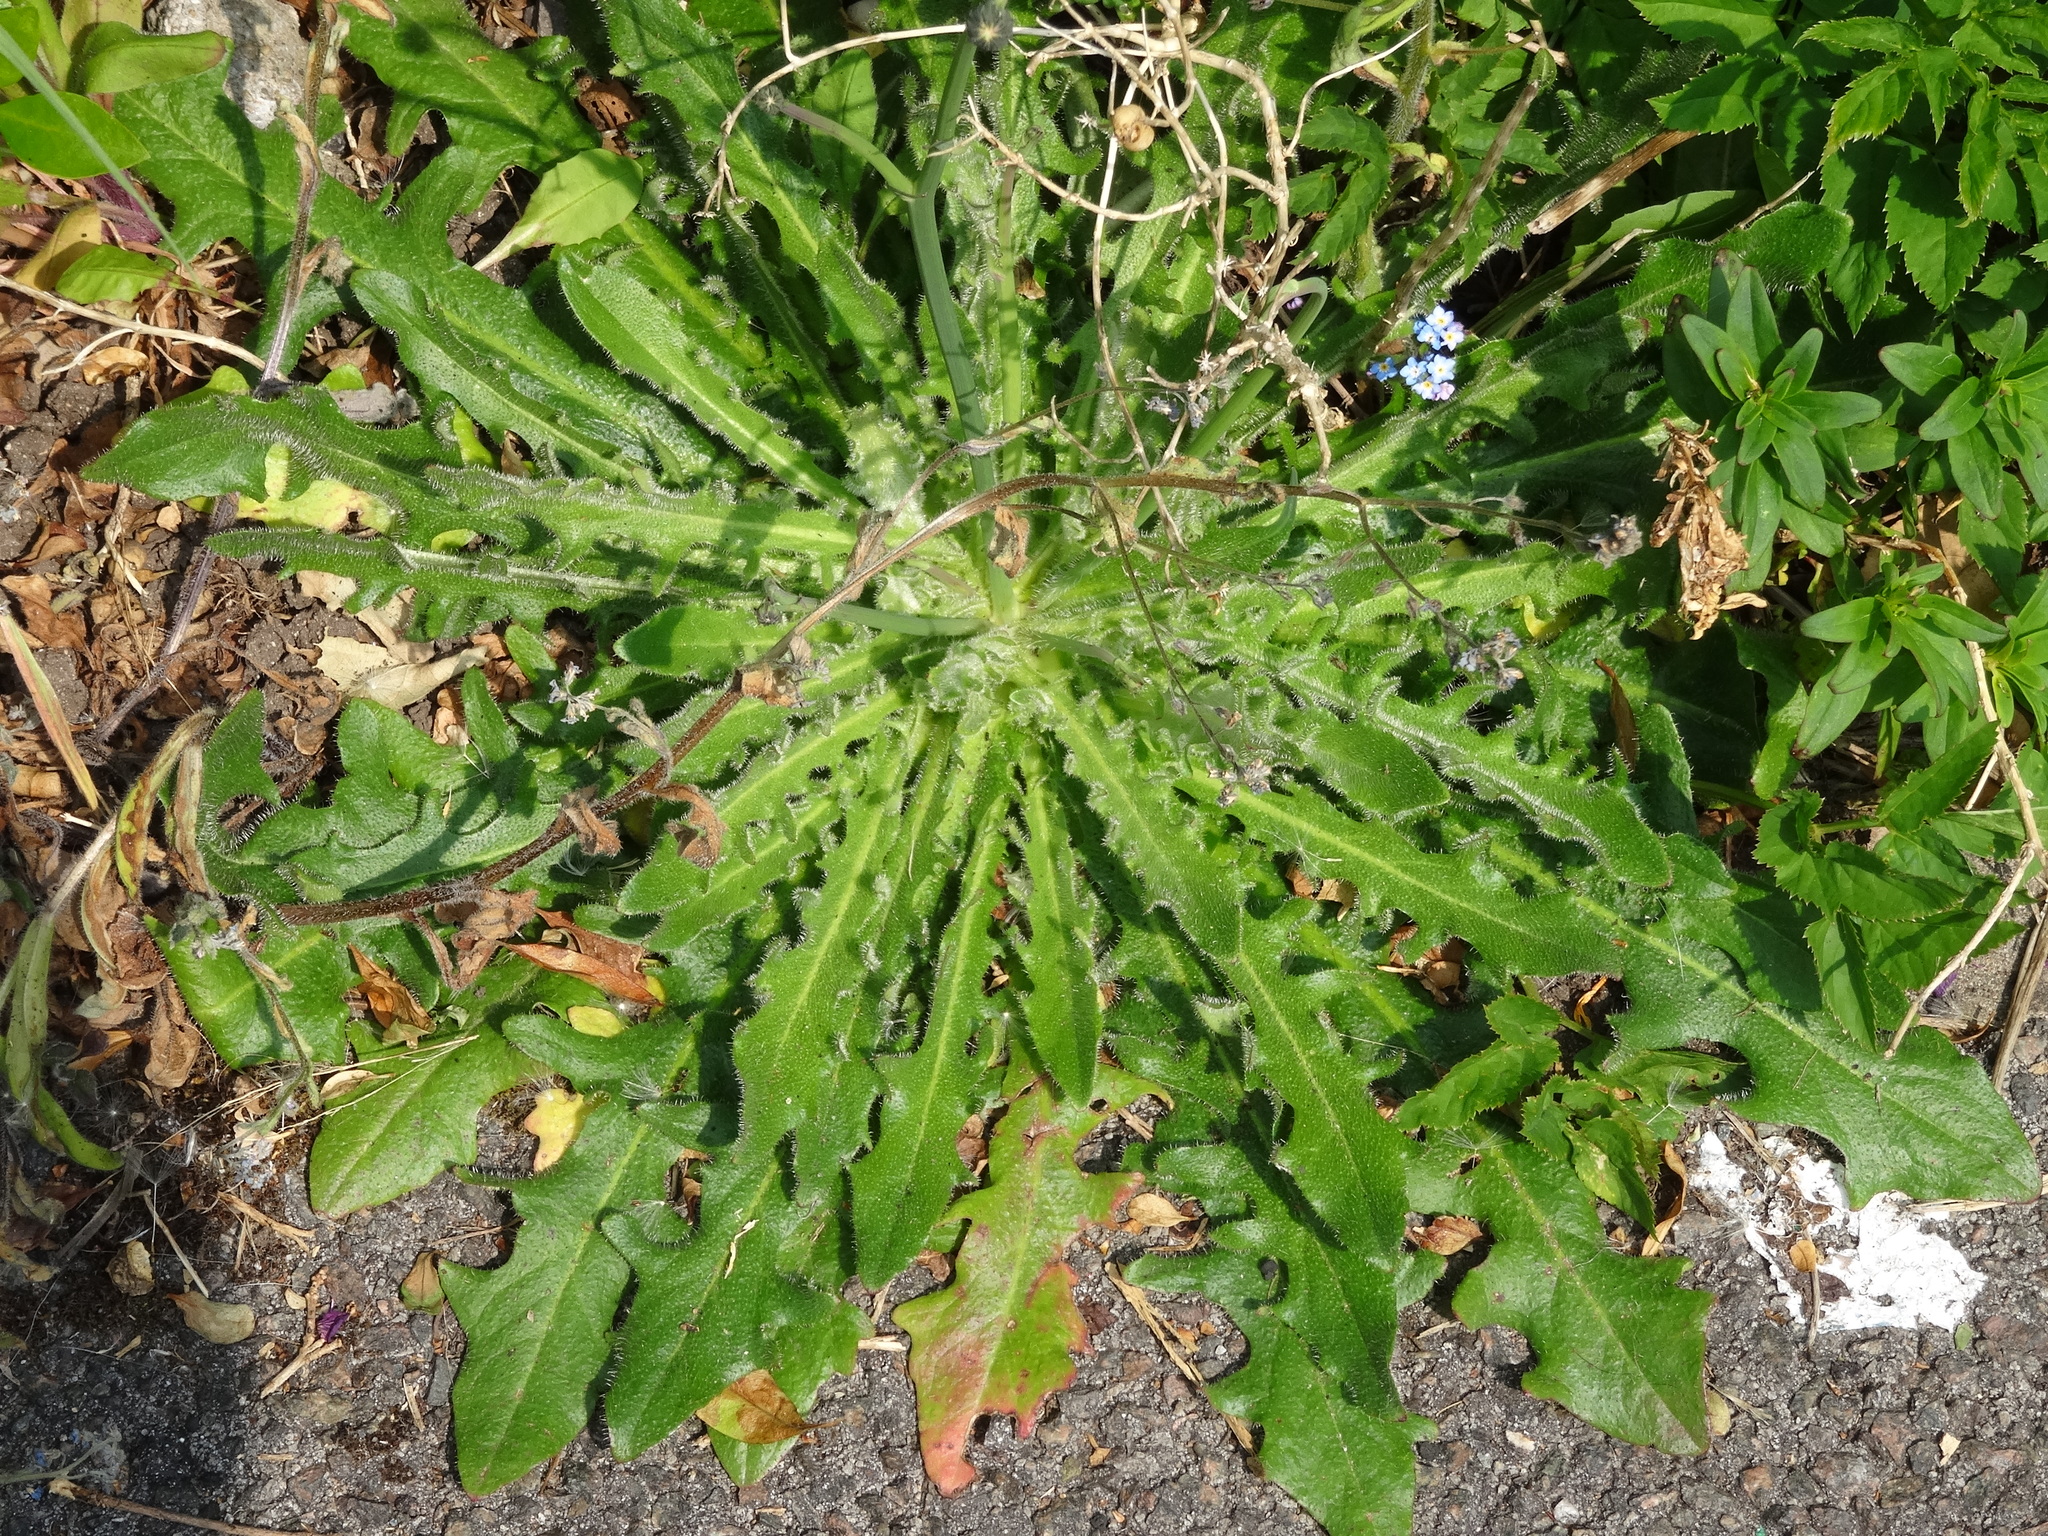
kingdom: Plantae
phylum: Tracheophyta
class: Magnoliopsida
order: Asterales
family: Asteraceae
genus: Hypochaeris
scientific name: Hypochaeris radicata
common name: Flatweed
